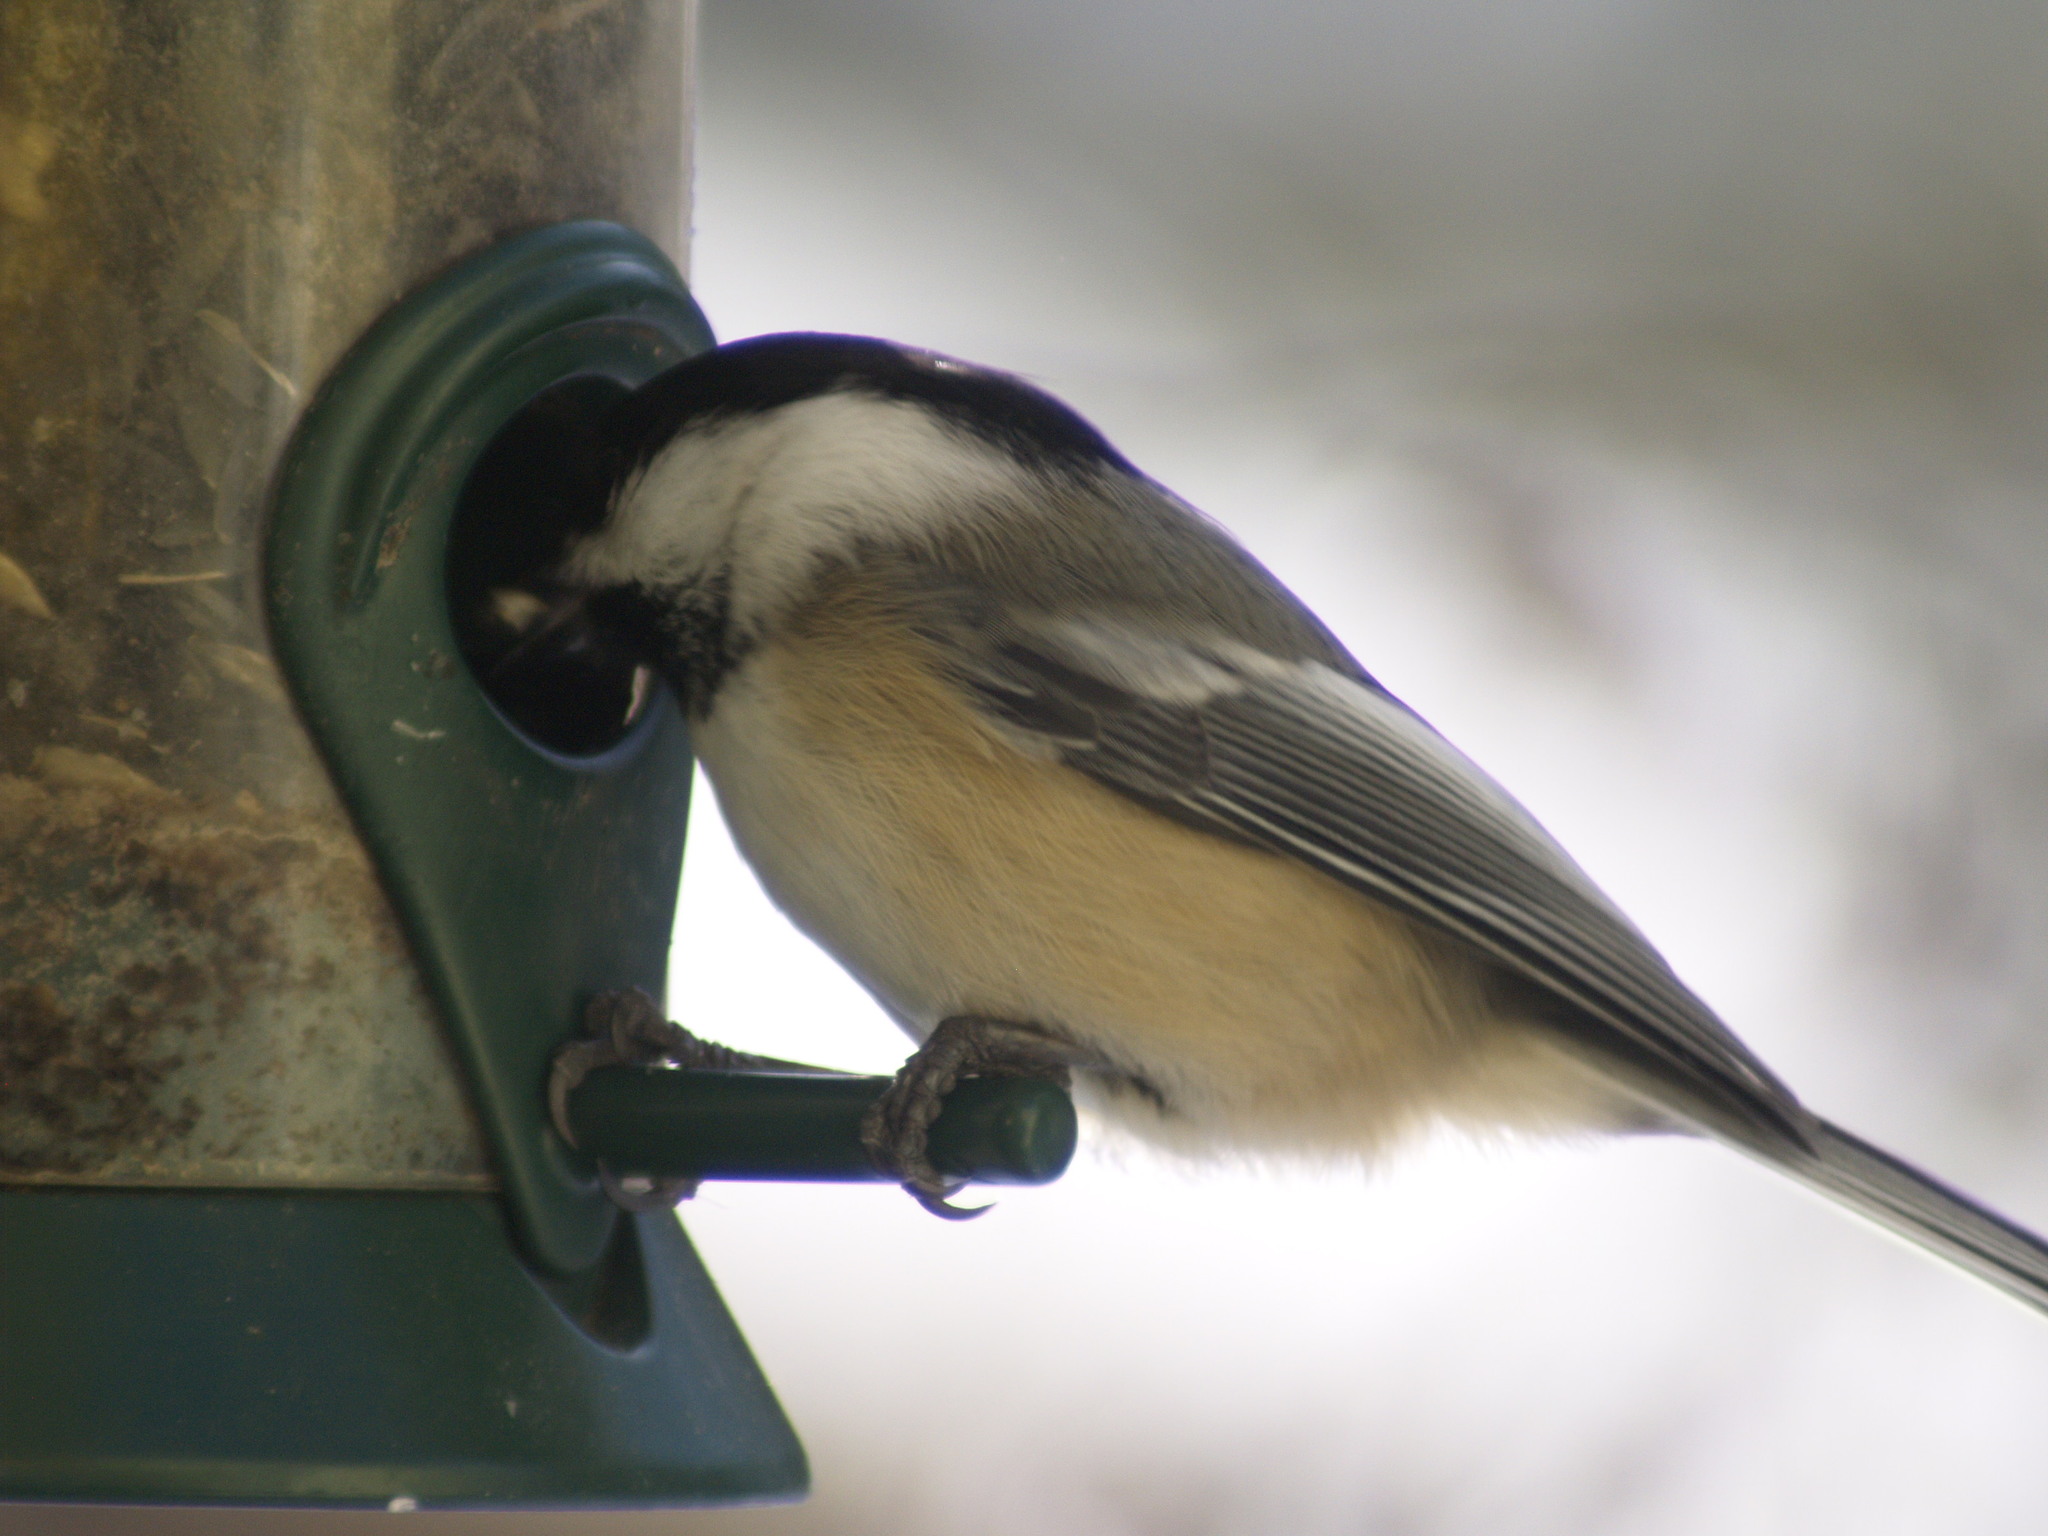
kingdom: Animalia
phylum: Chordata
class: Aves
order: Passeriformes
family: Paridae
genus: Poecile
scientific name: Poecile atricapillus
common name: Black-capped chickadee
